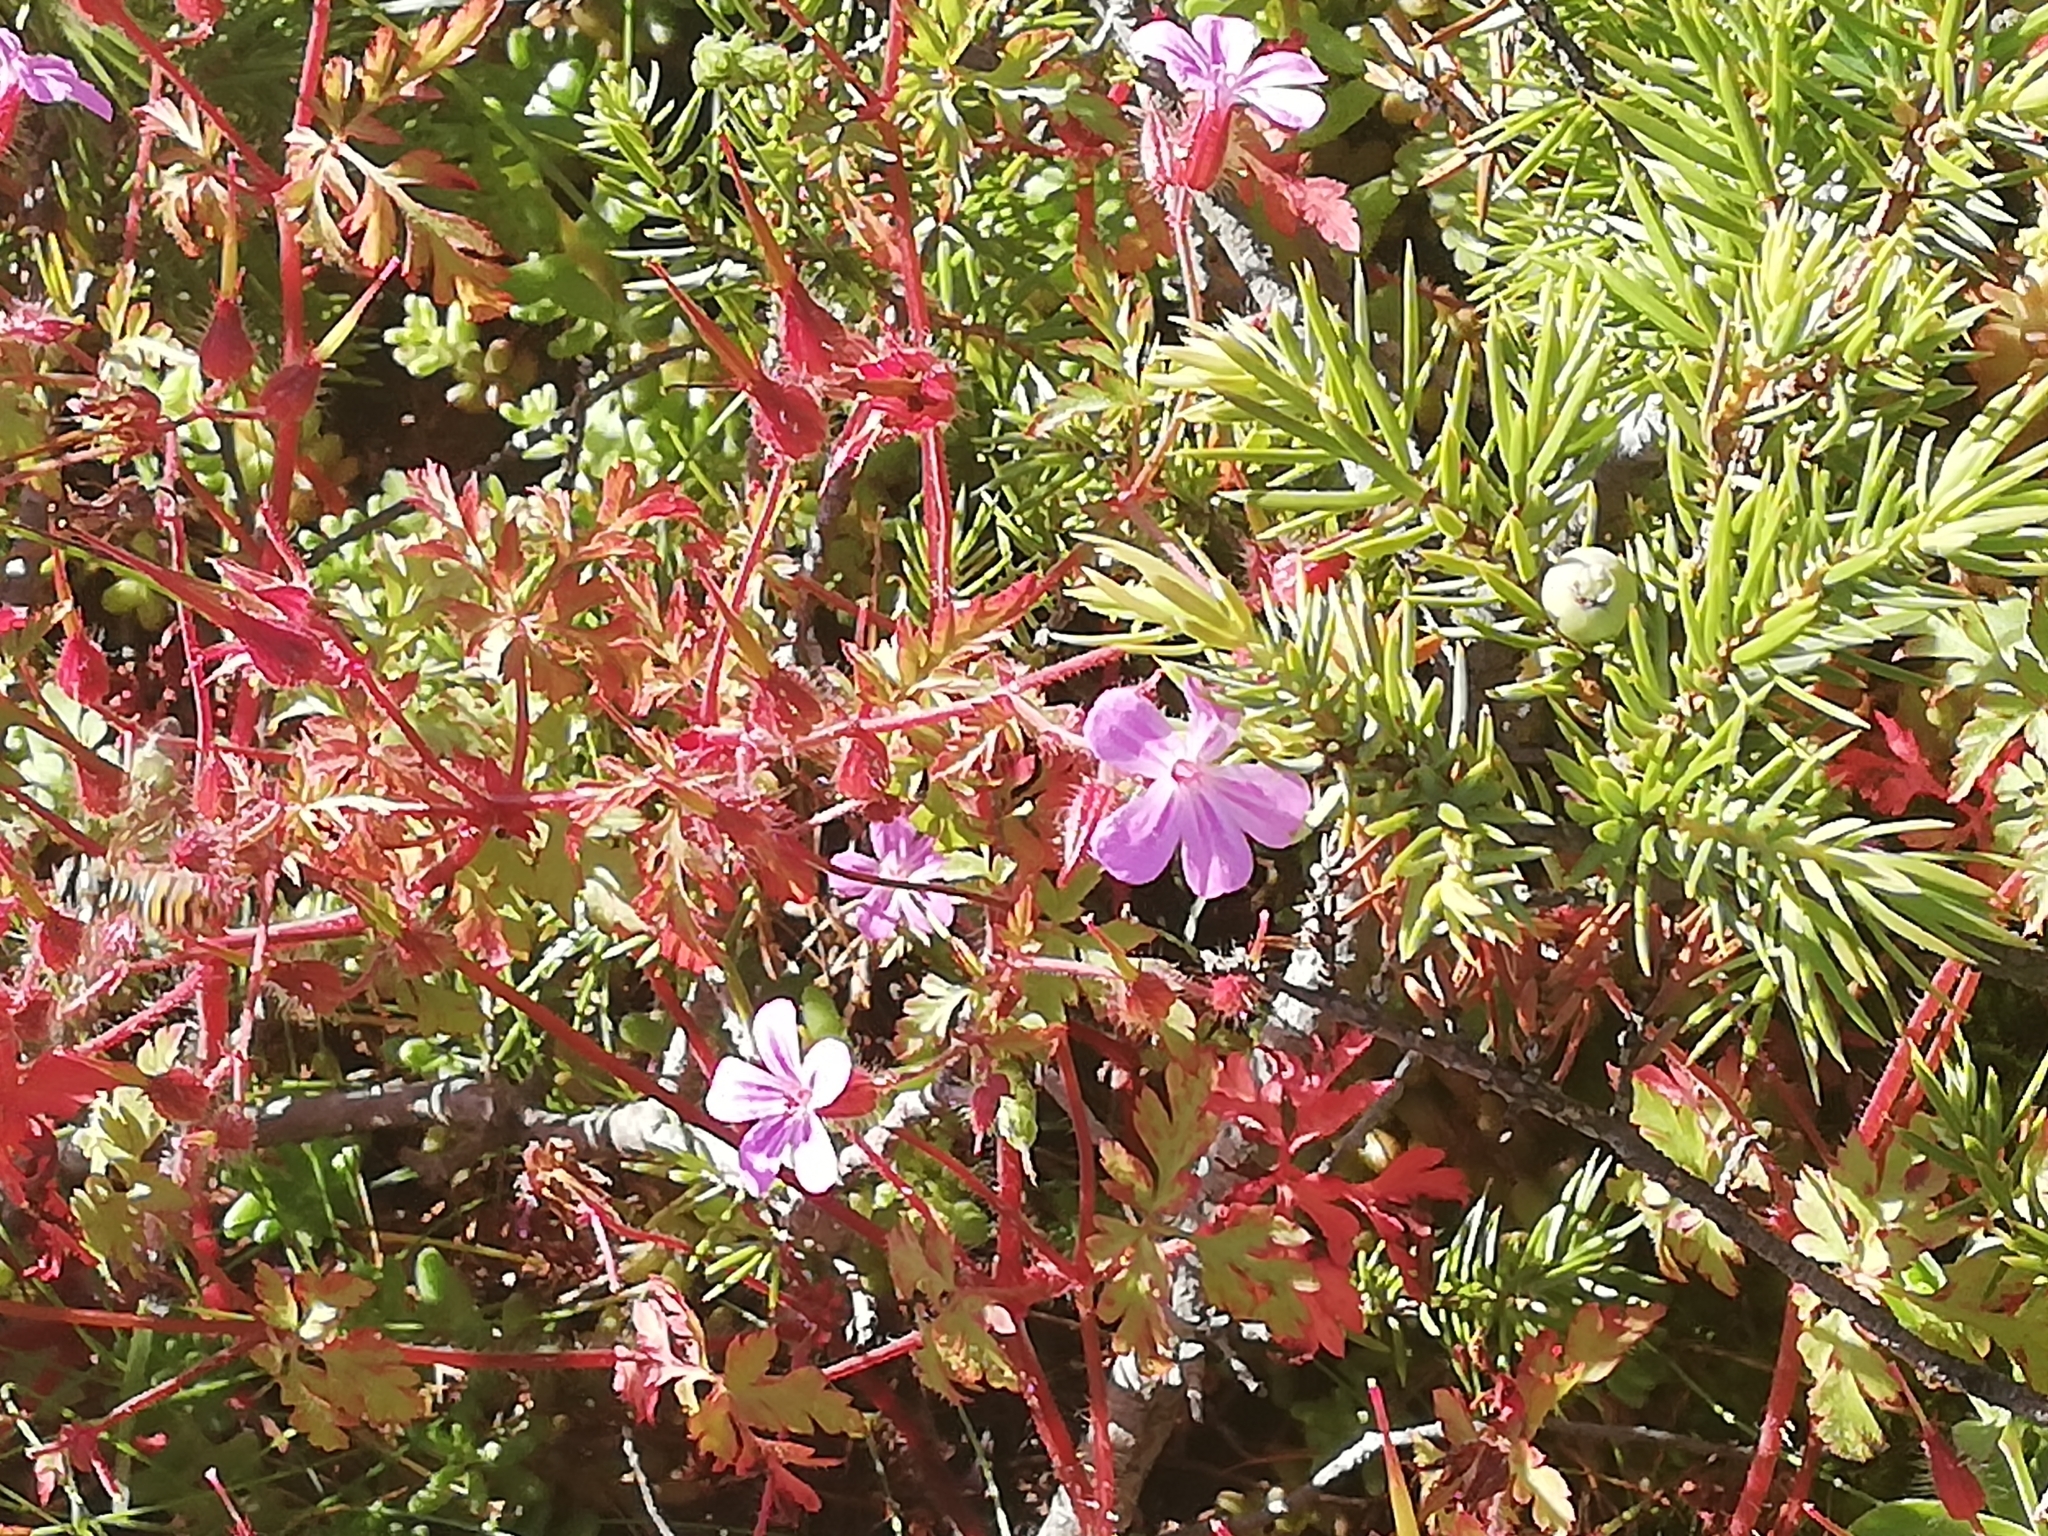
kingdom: Plantae
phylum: Tracheophyta
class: Magnoliopsida
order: Geraniales
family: Geraniaceae
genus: Geranium
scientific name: Geranium robertianum
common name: Herb-robert
